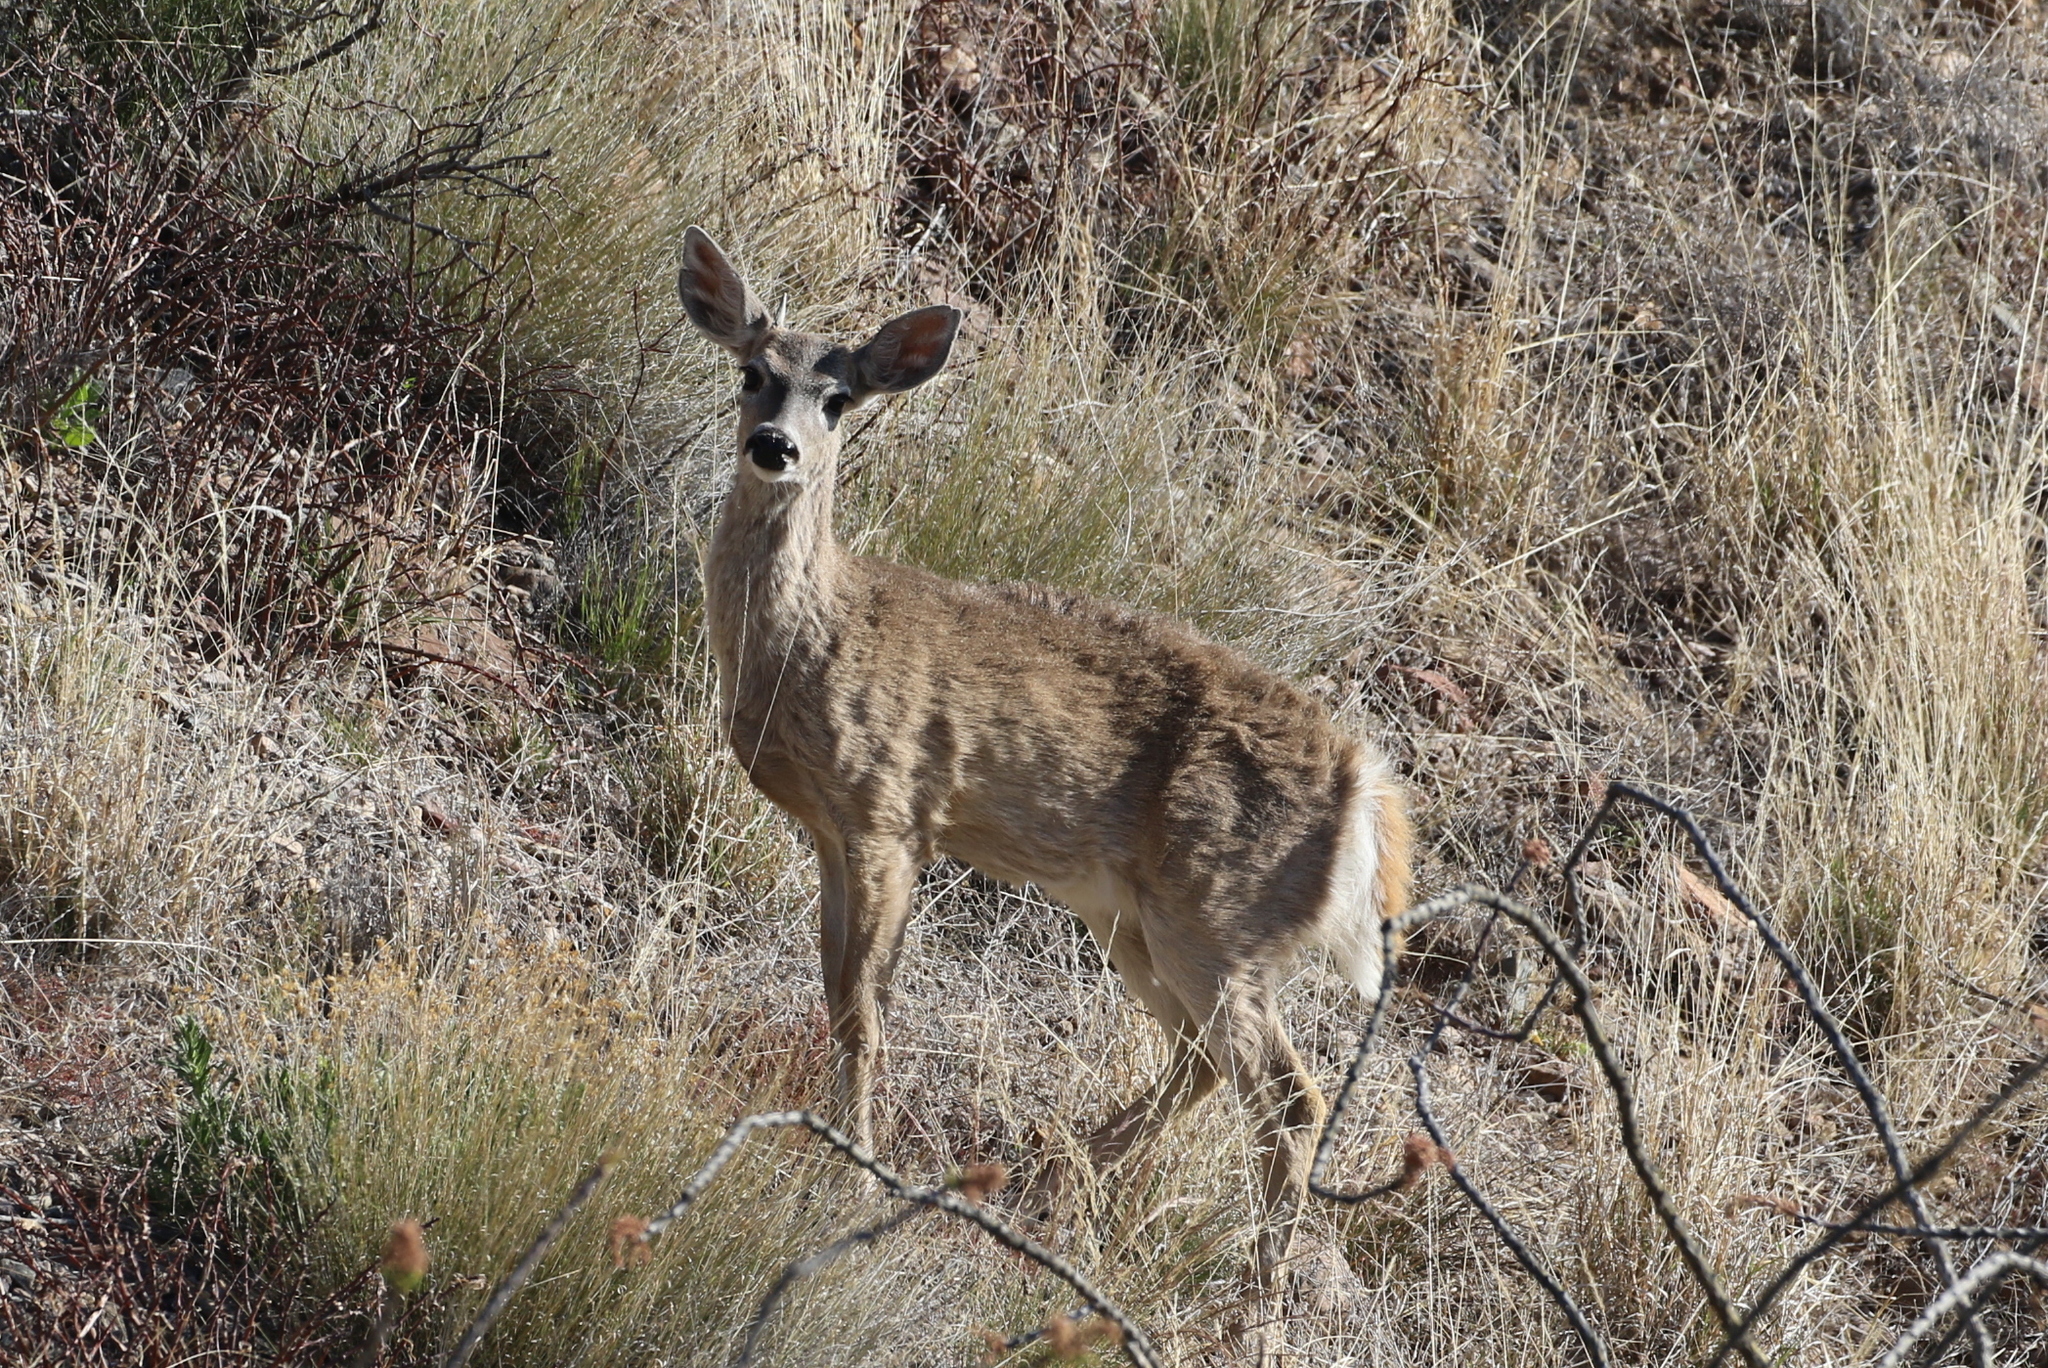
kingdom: Animalia
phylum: Chordata
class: Mammalia
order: Artiodactyla
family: Cervidae
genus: Odocoileus
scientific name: Odocoileus virginianus
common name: White-tailed deer
